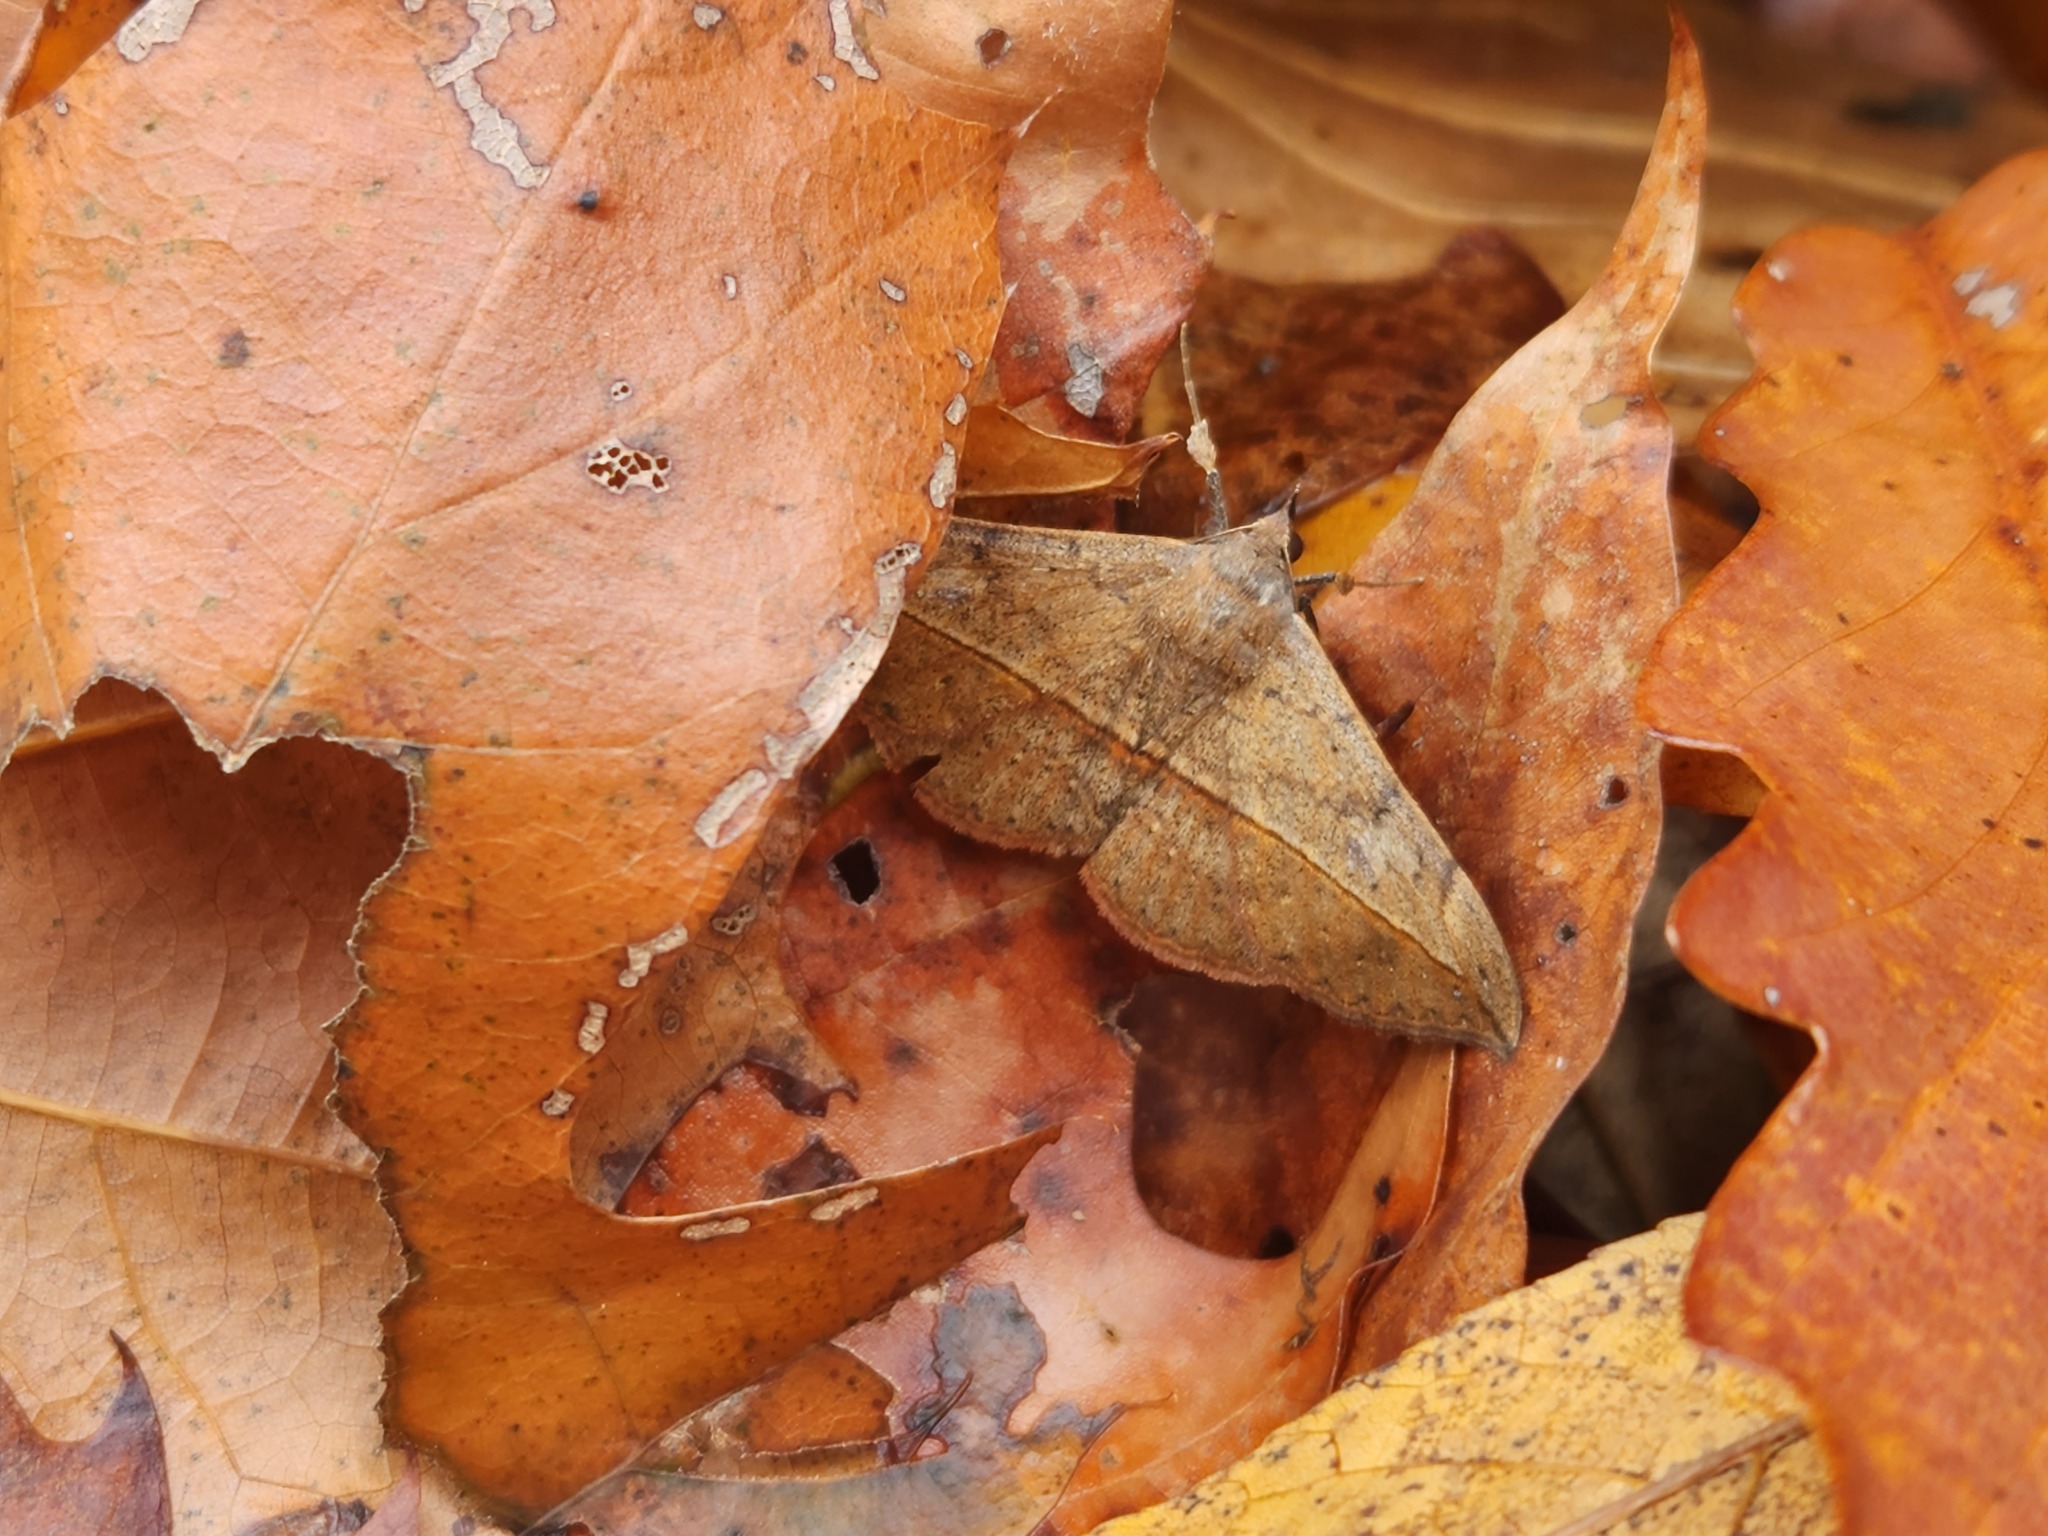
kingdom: Animalia
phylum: Arthropoda
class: Insecta
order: Lepidoptera
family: Erebidae
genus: Anticarsia
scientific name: Anticarsia gemmatalis
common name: Cutworm moth
